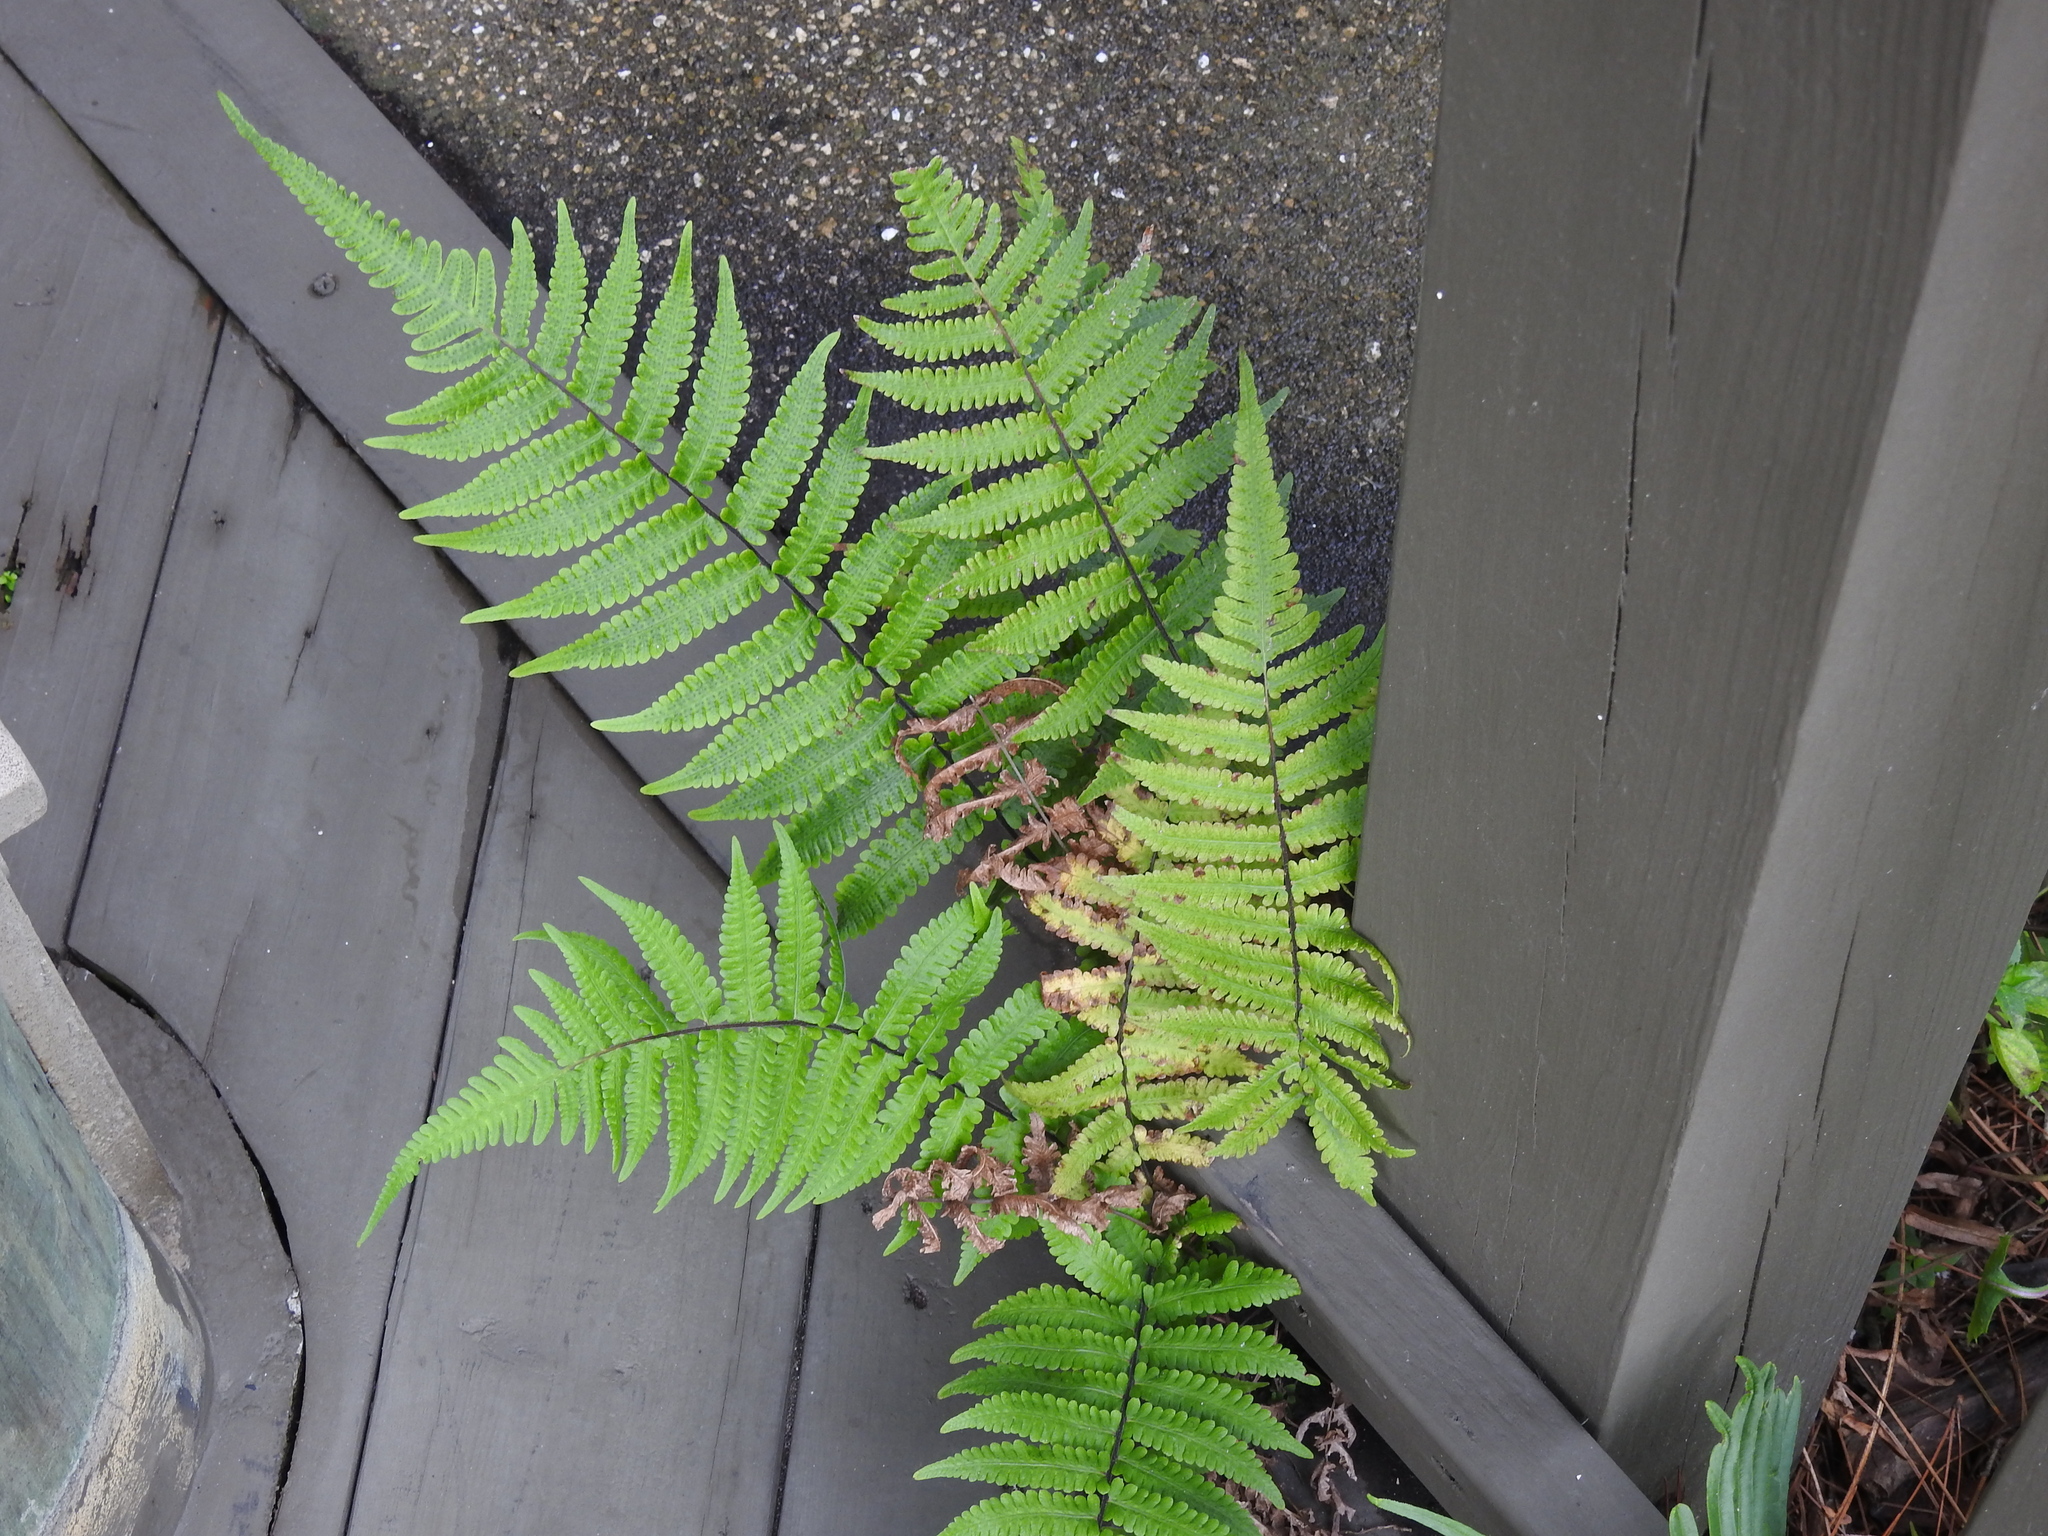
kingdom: Plantae
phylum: Tracheophyta
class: Polypodiopsida
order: Polypodiales
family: Thelypteridaceae
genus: Christella
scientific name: Christella dentata
